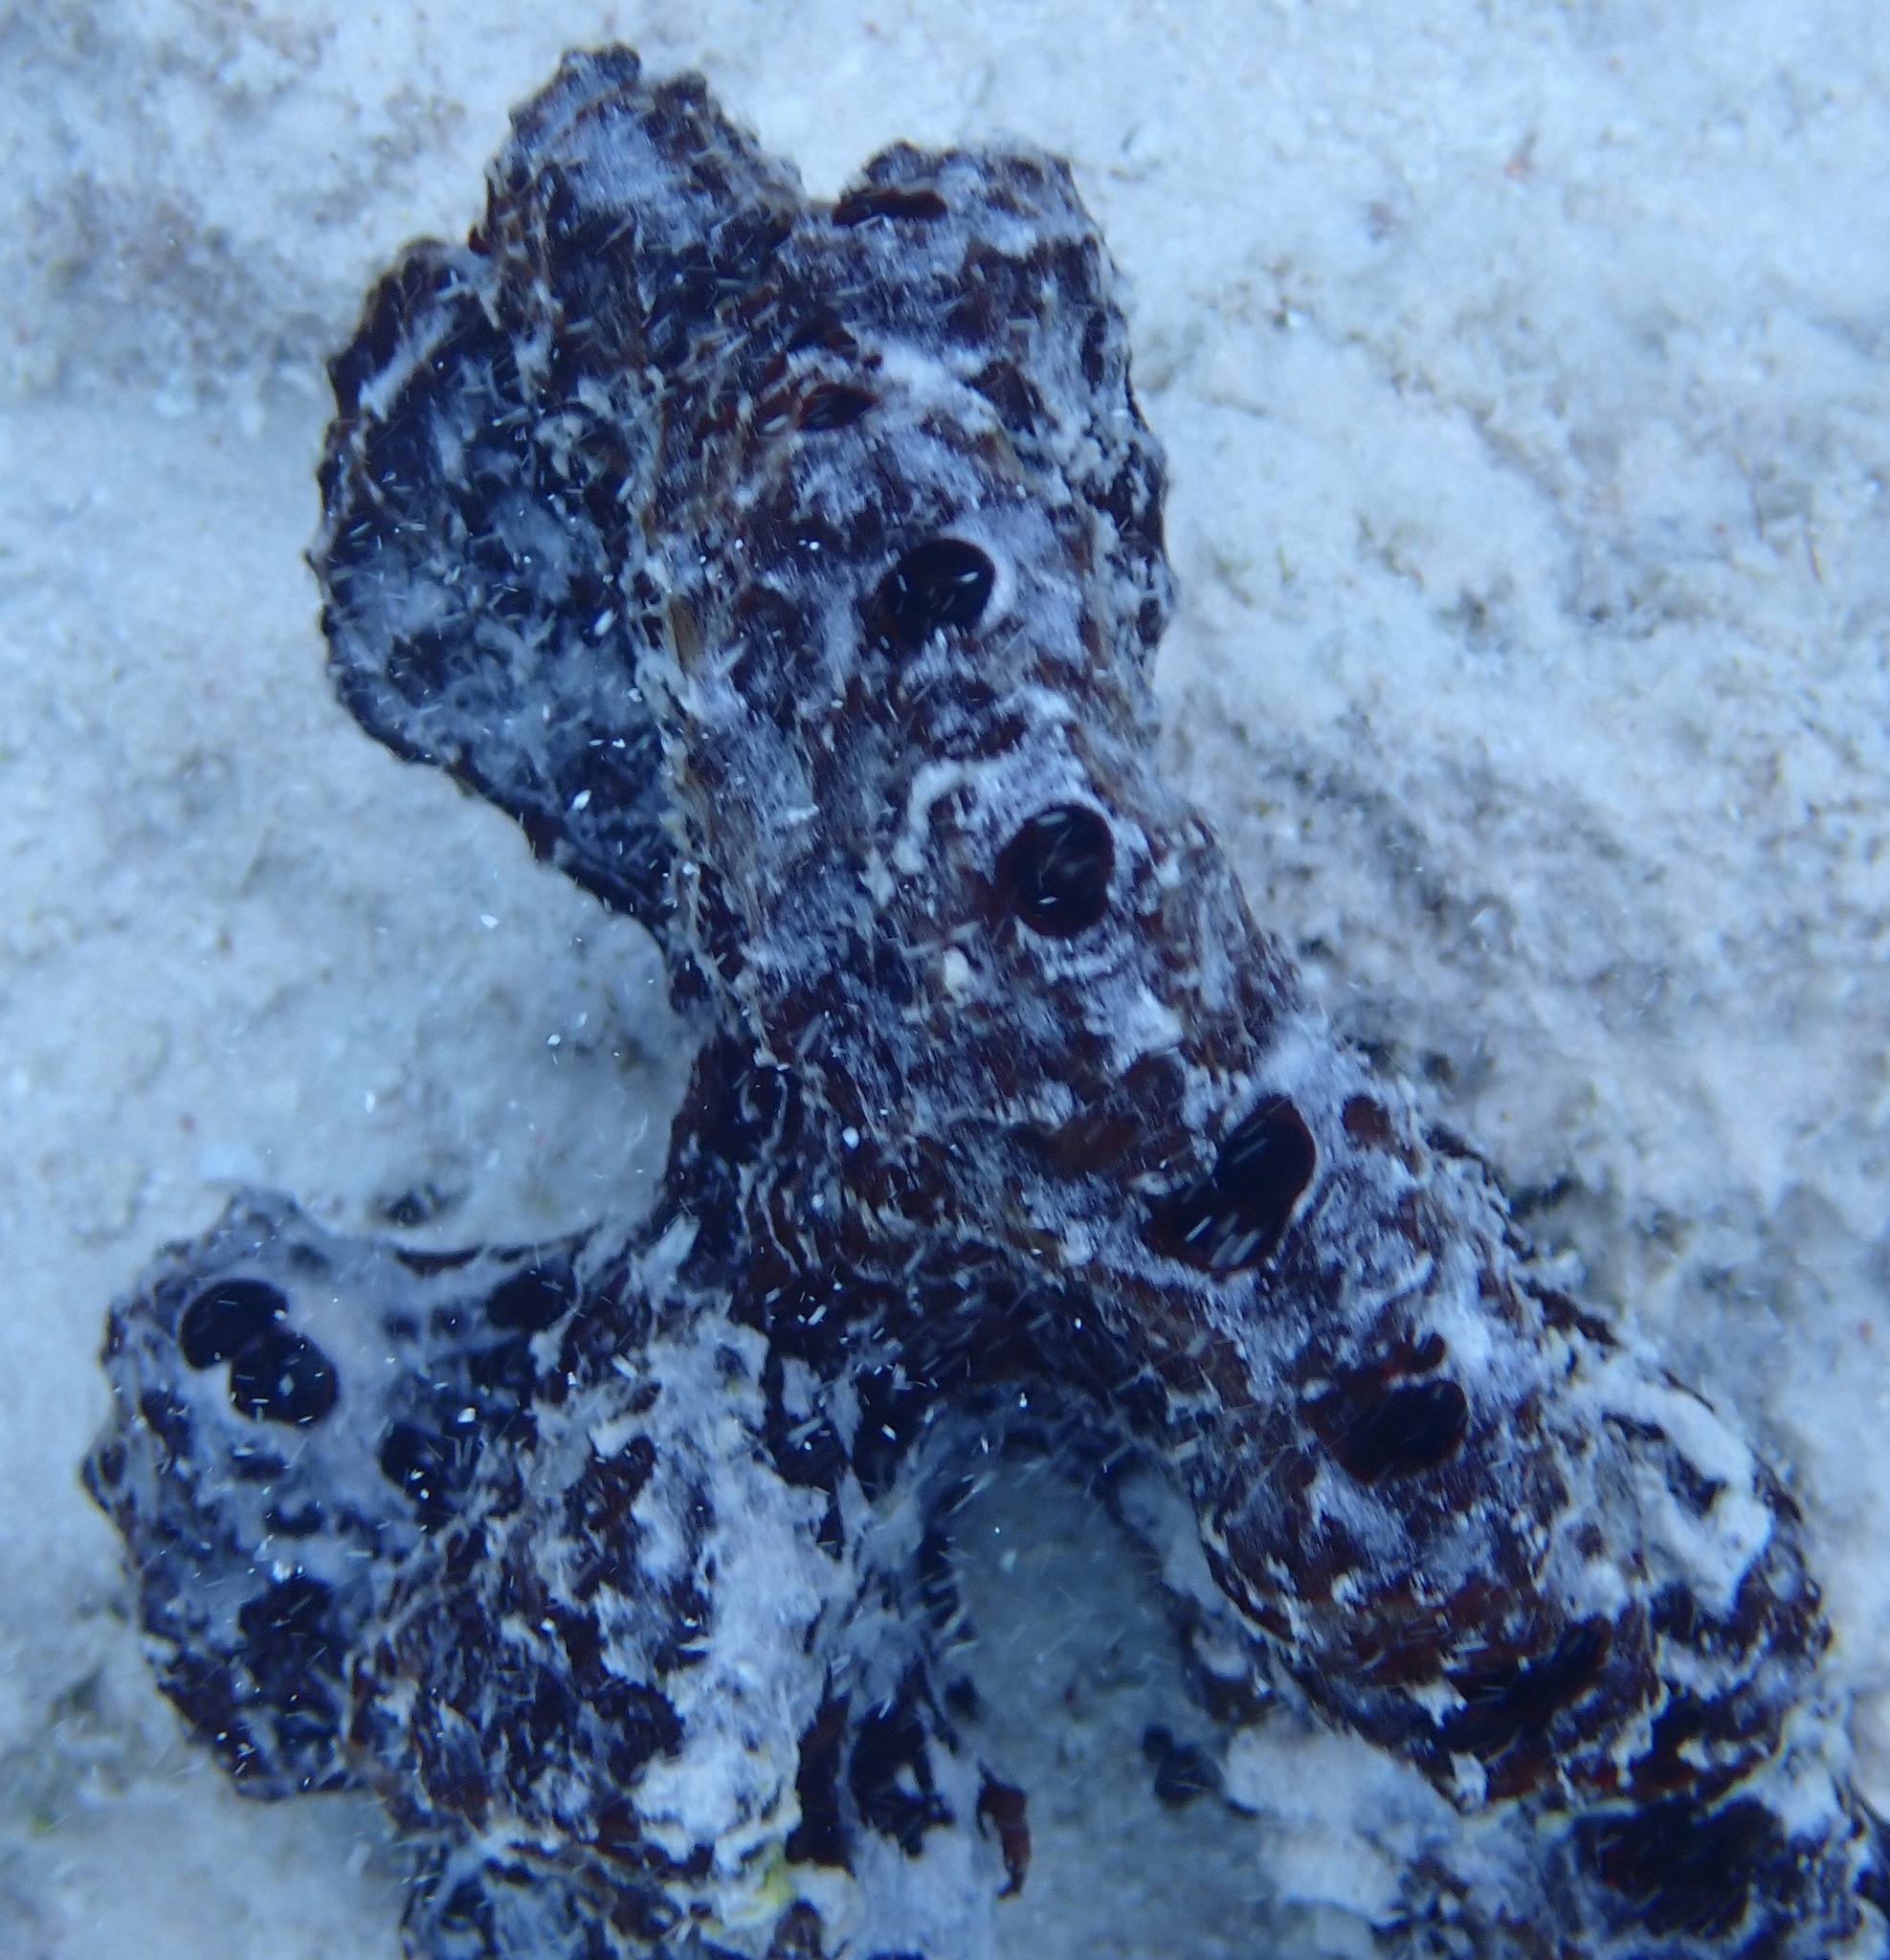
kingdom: Animalia
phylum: Porifera
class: Demospongiae
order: Poecilosclerida
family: Microcionidae
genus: Pandaros
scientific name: Pandaros acanthifolium
